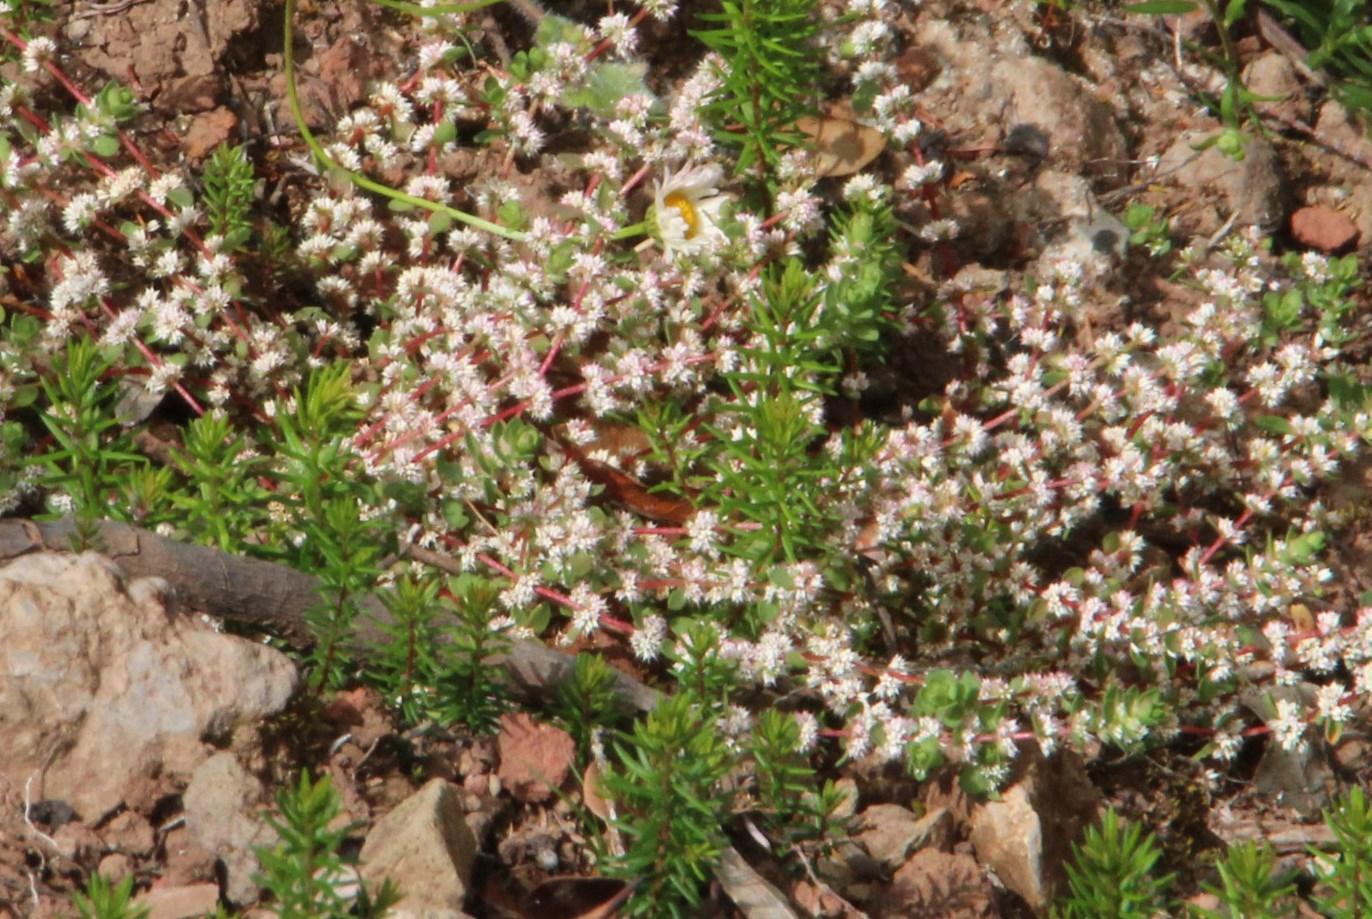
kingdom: Plantae
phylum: Tracheophyta
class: Magnoliopsida
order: Caryophyllales
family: Caryophyllaceae
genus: Illecebrum
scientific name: Illecebrum verticillatum
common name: Coral necklace
